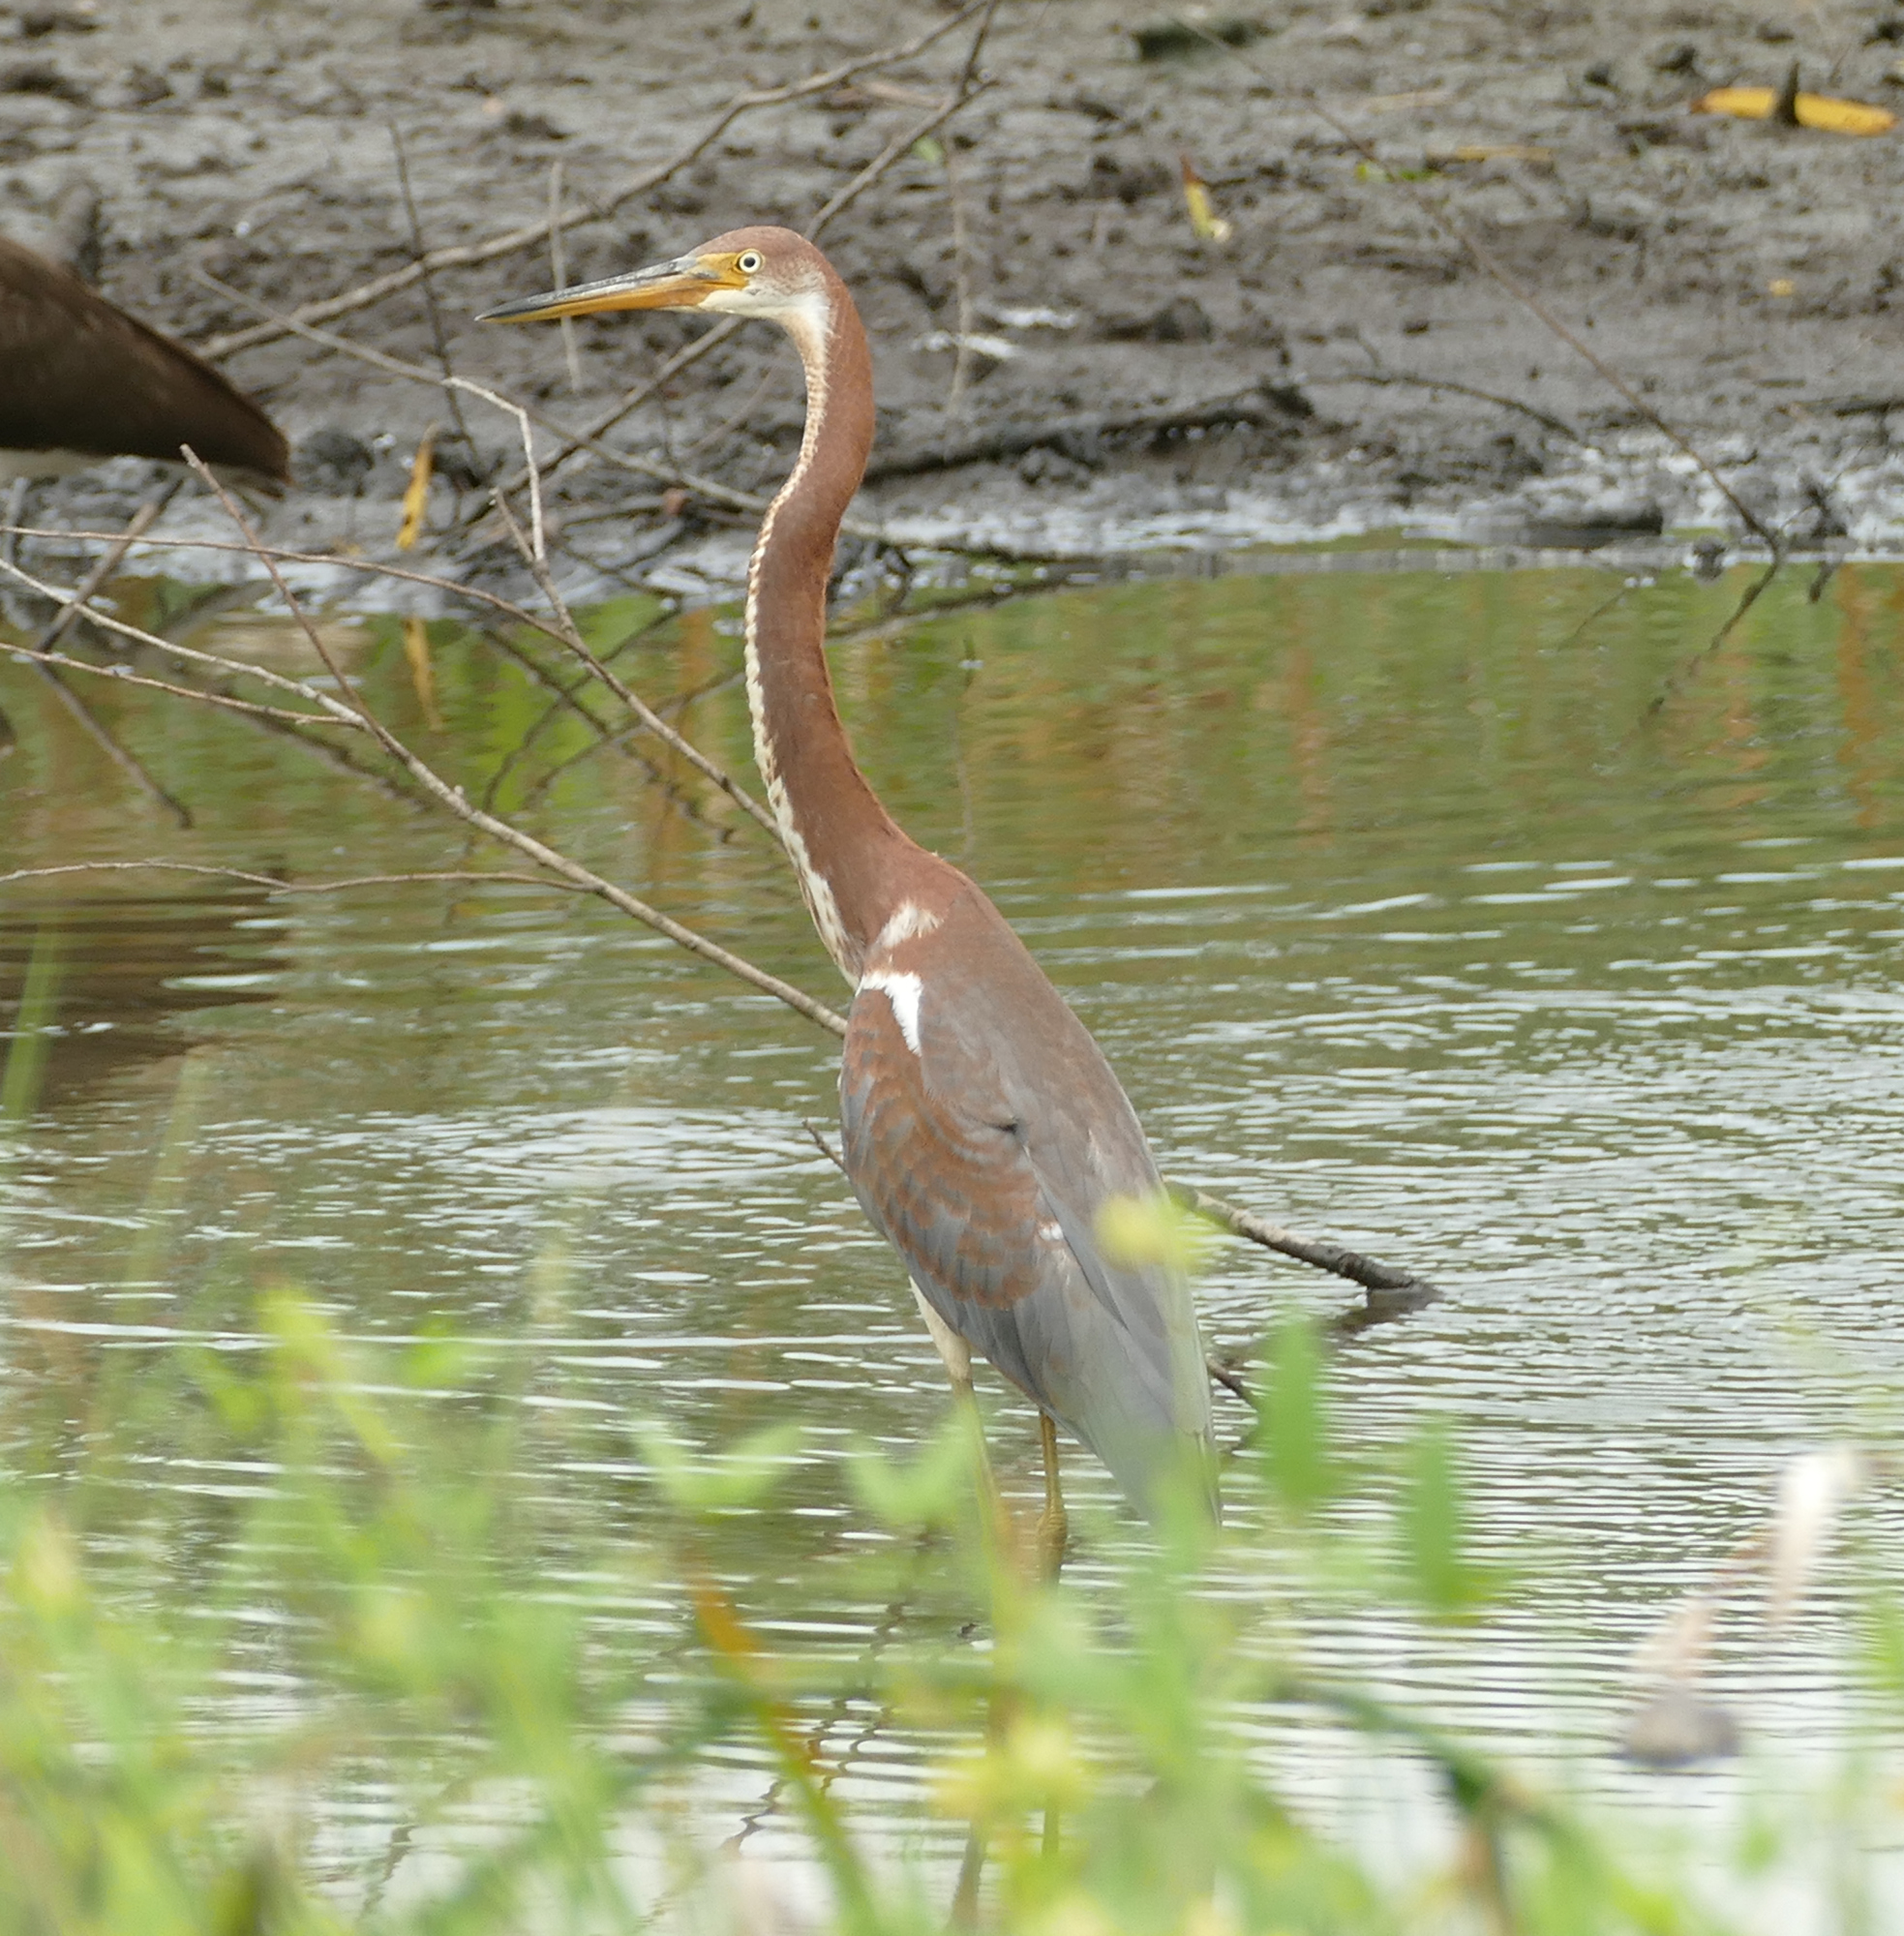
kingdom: Animalia
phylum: Chordata
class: Aves
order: Pelecaniformes
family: Ardeidae
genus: Egretta
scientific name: Egretta tricolor
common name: Tricolored heron
